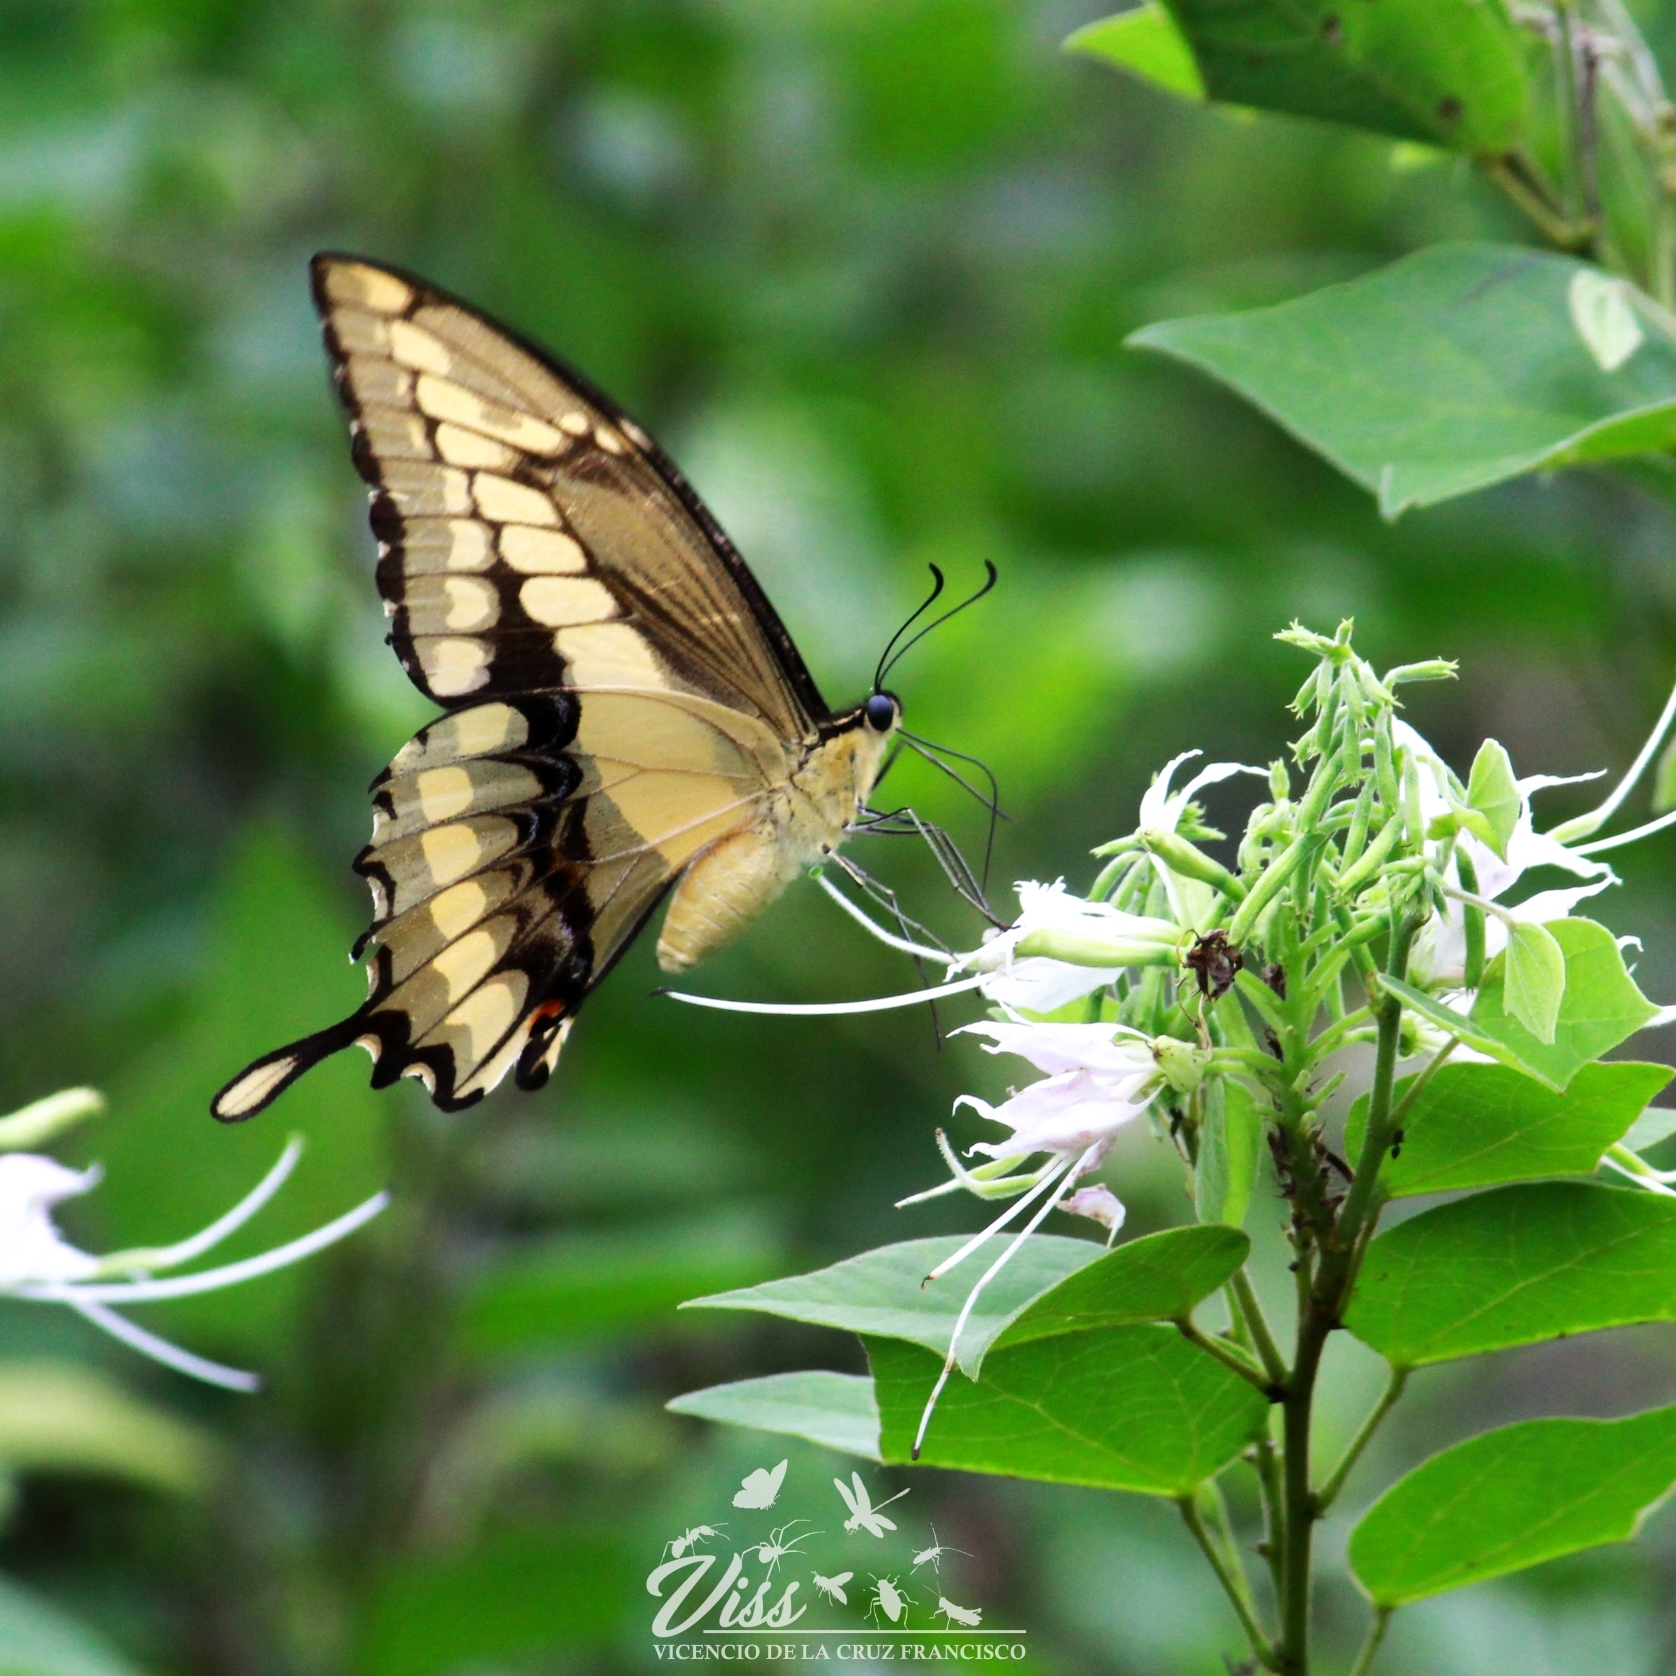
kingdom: Animalia
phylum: Arthropoda
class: Insecta
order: Lepidoptera
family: Papilionidae
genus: Papilio
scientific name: Papilio thoas
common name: King swallowtail
